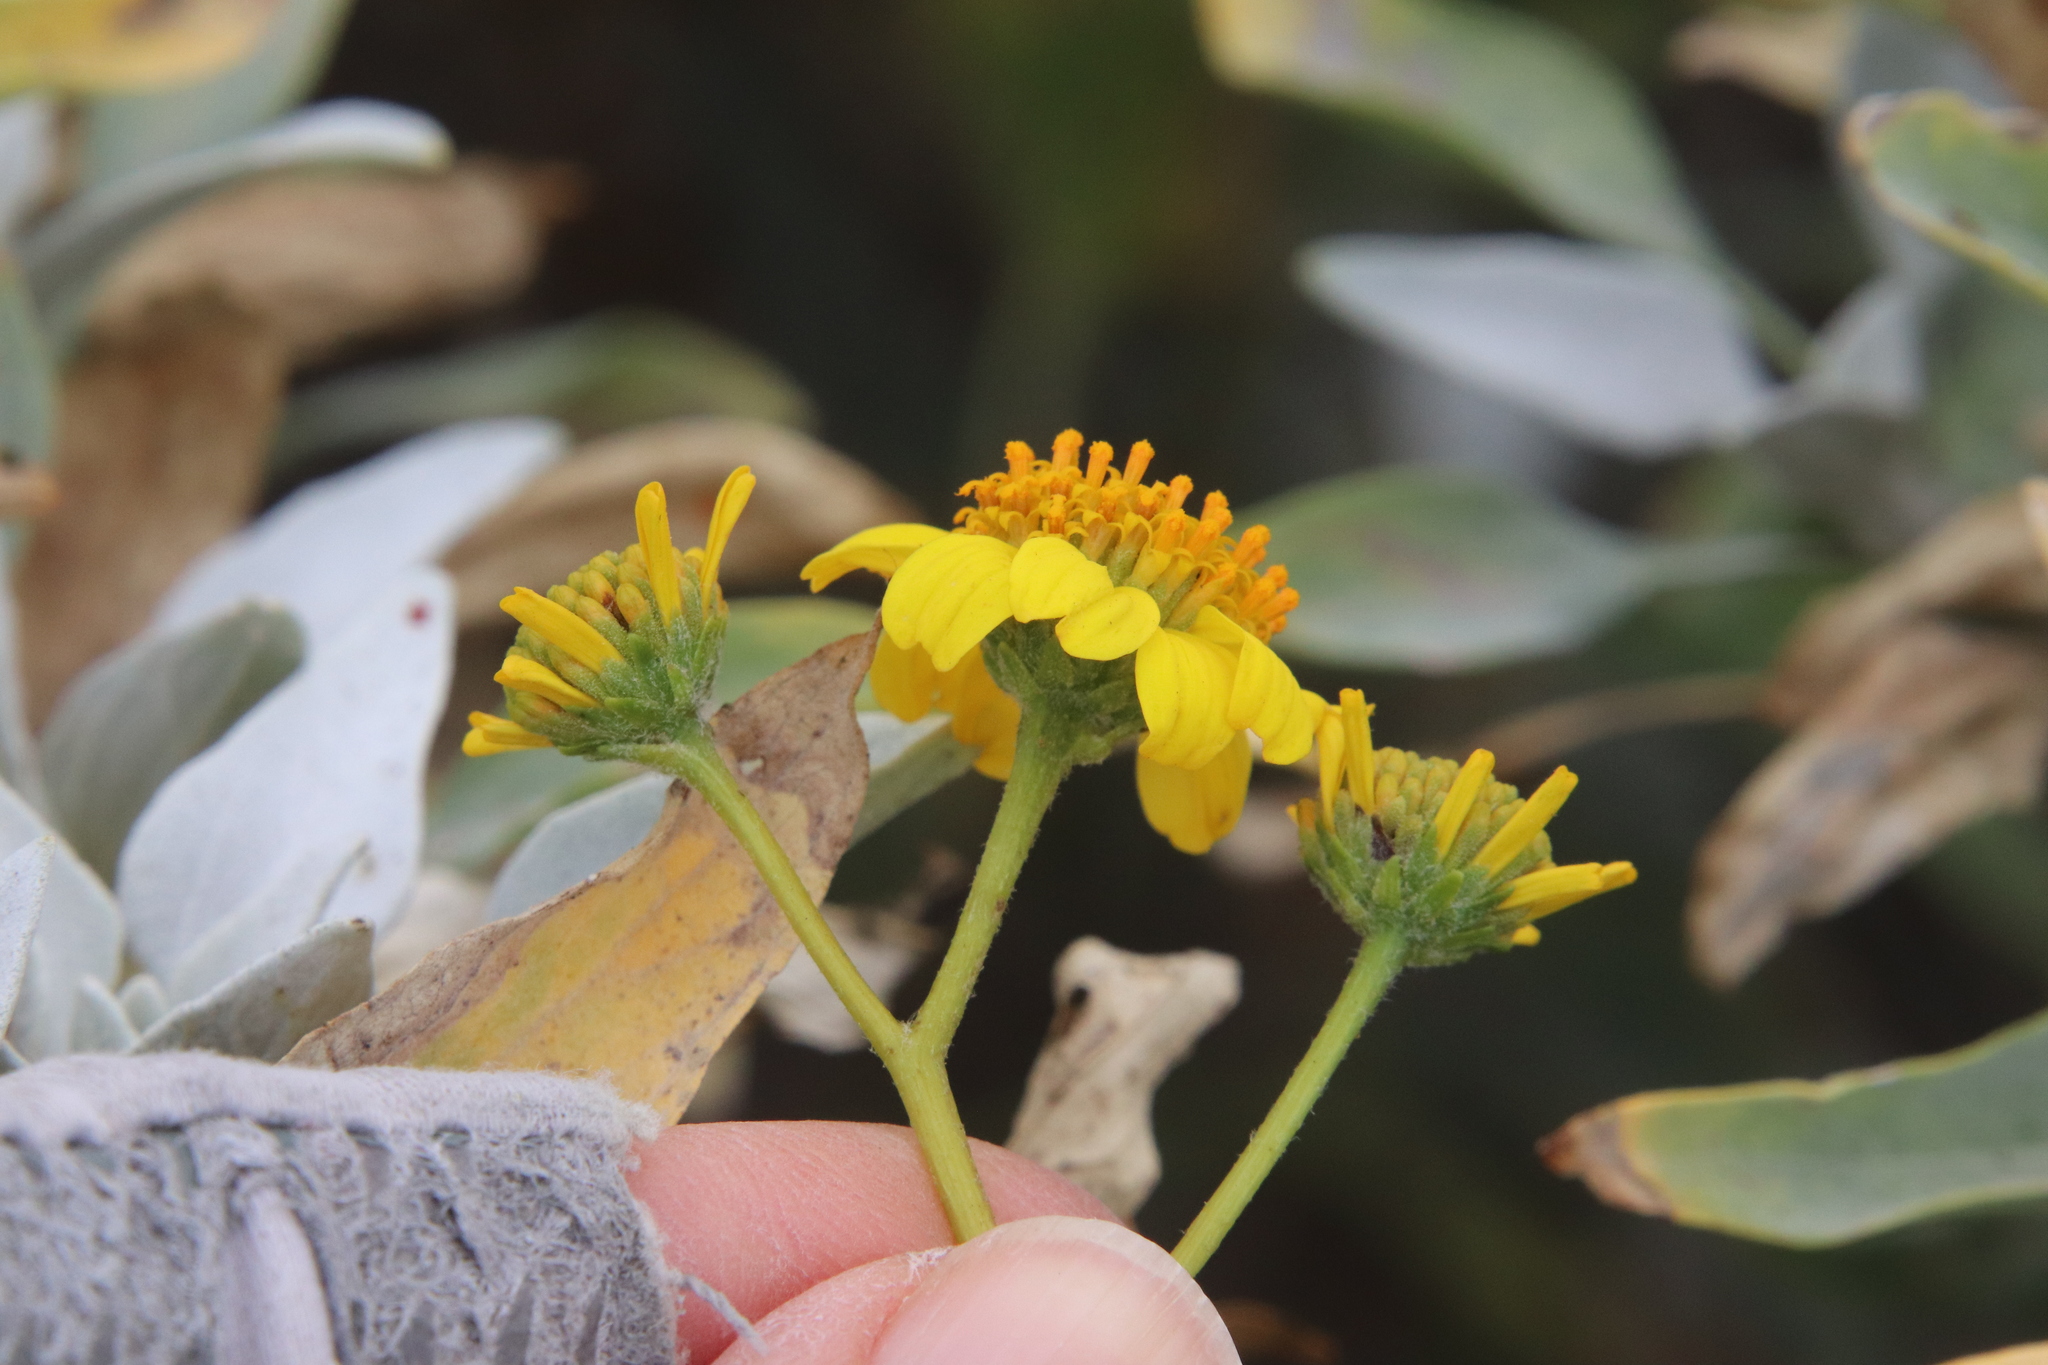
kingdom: Plantae
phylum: Tracheophyta
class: Magnoliopsida
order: Asterales
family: Asteraceae
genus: Encelia
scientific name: Encelia farinosa
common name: Brittlebush
